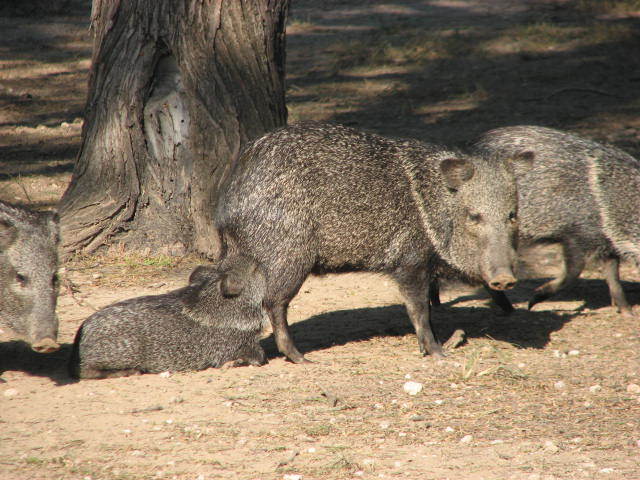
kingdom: Animalia
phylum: Chordata
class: Mammalia
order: Artiodactyla
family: Tayassuidae
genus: Pecari
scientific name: Pecari tajacu
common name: Collared peccary
